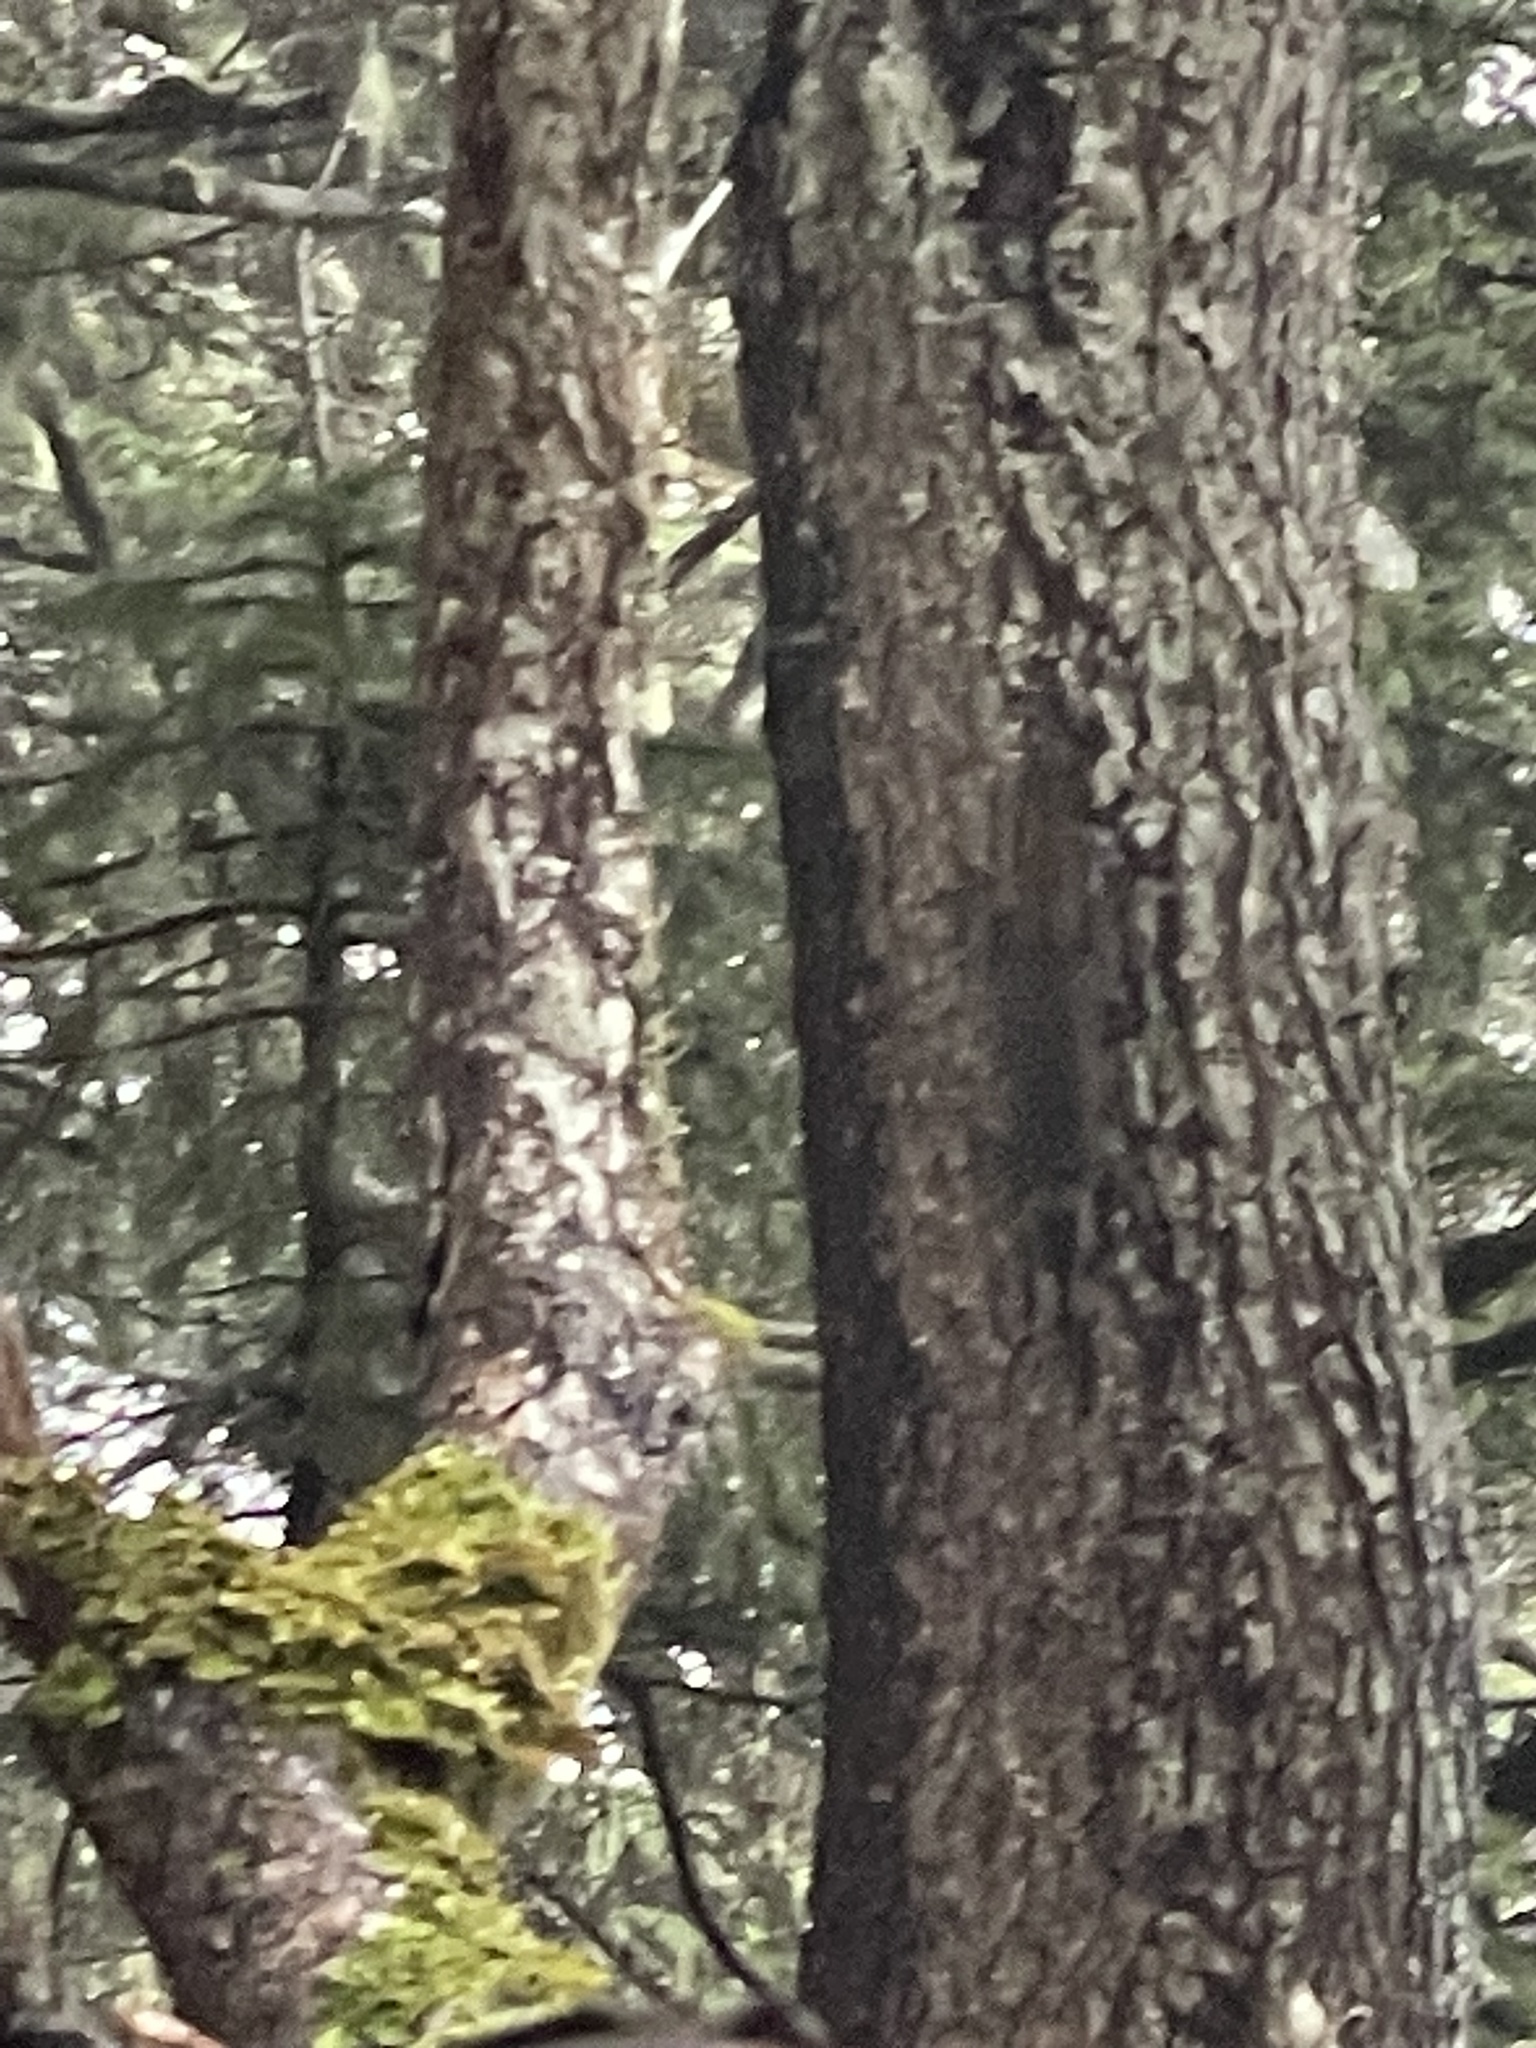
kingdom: Animalia
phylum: Chordata
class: Mammalia
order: Rodentia
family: Sciuridae
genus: Tamiasciurus
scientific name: Tamiasciurus hudsonicus
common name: Red squirrel
